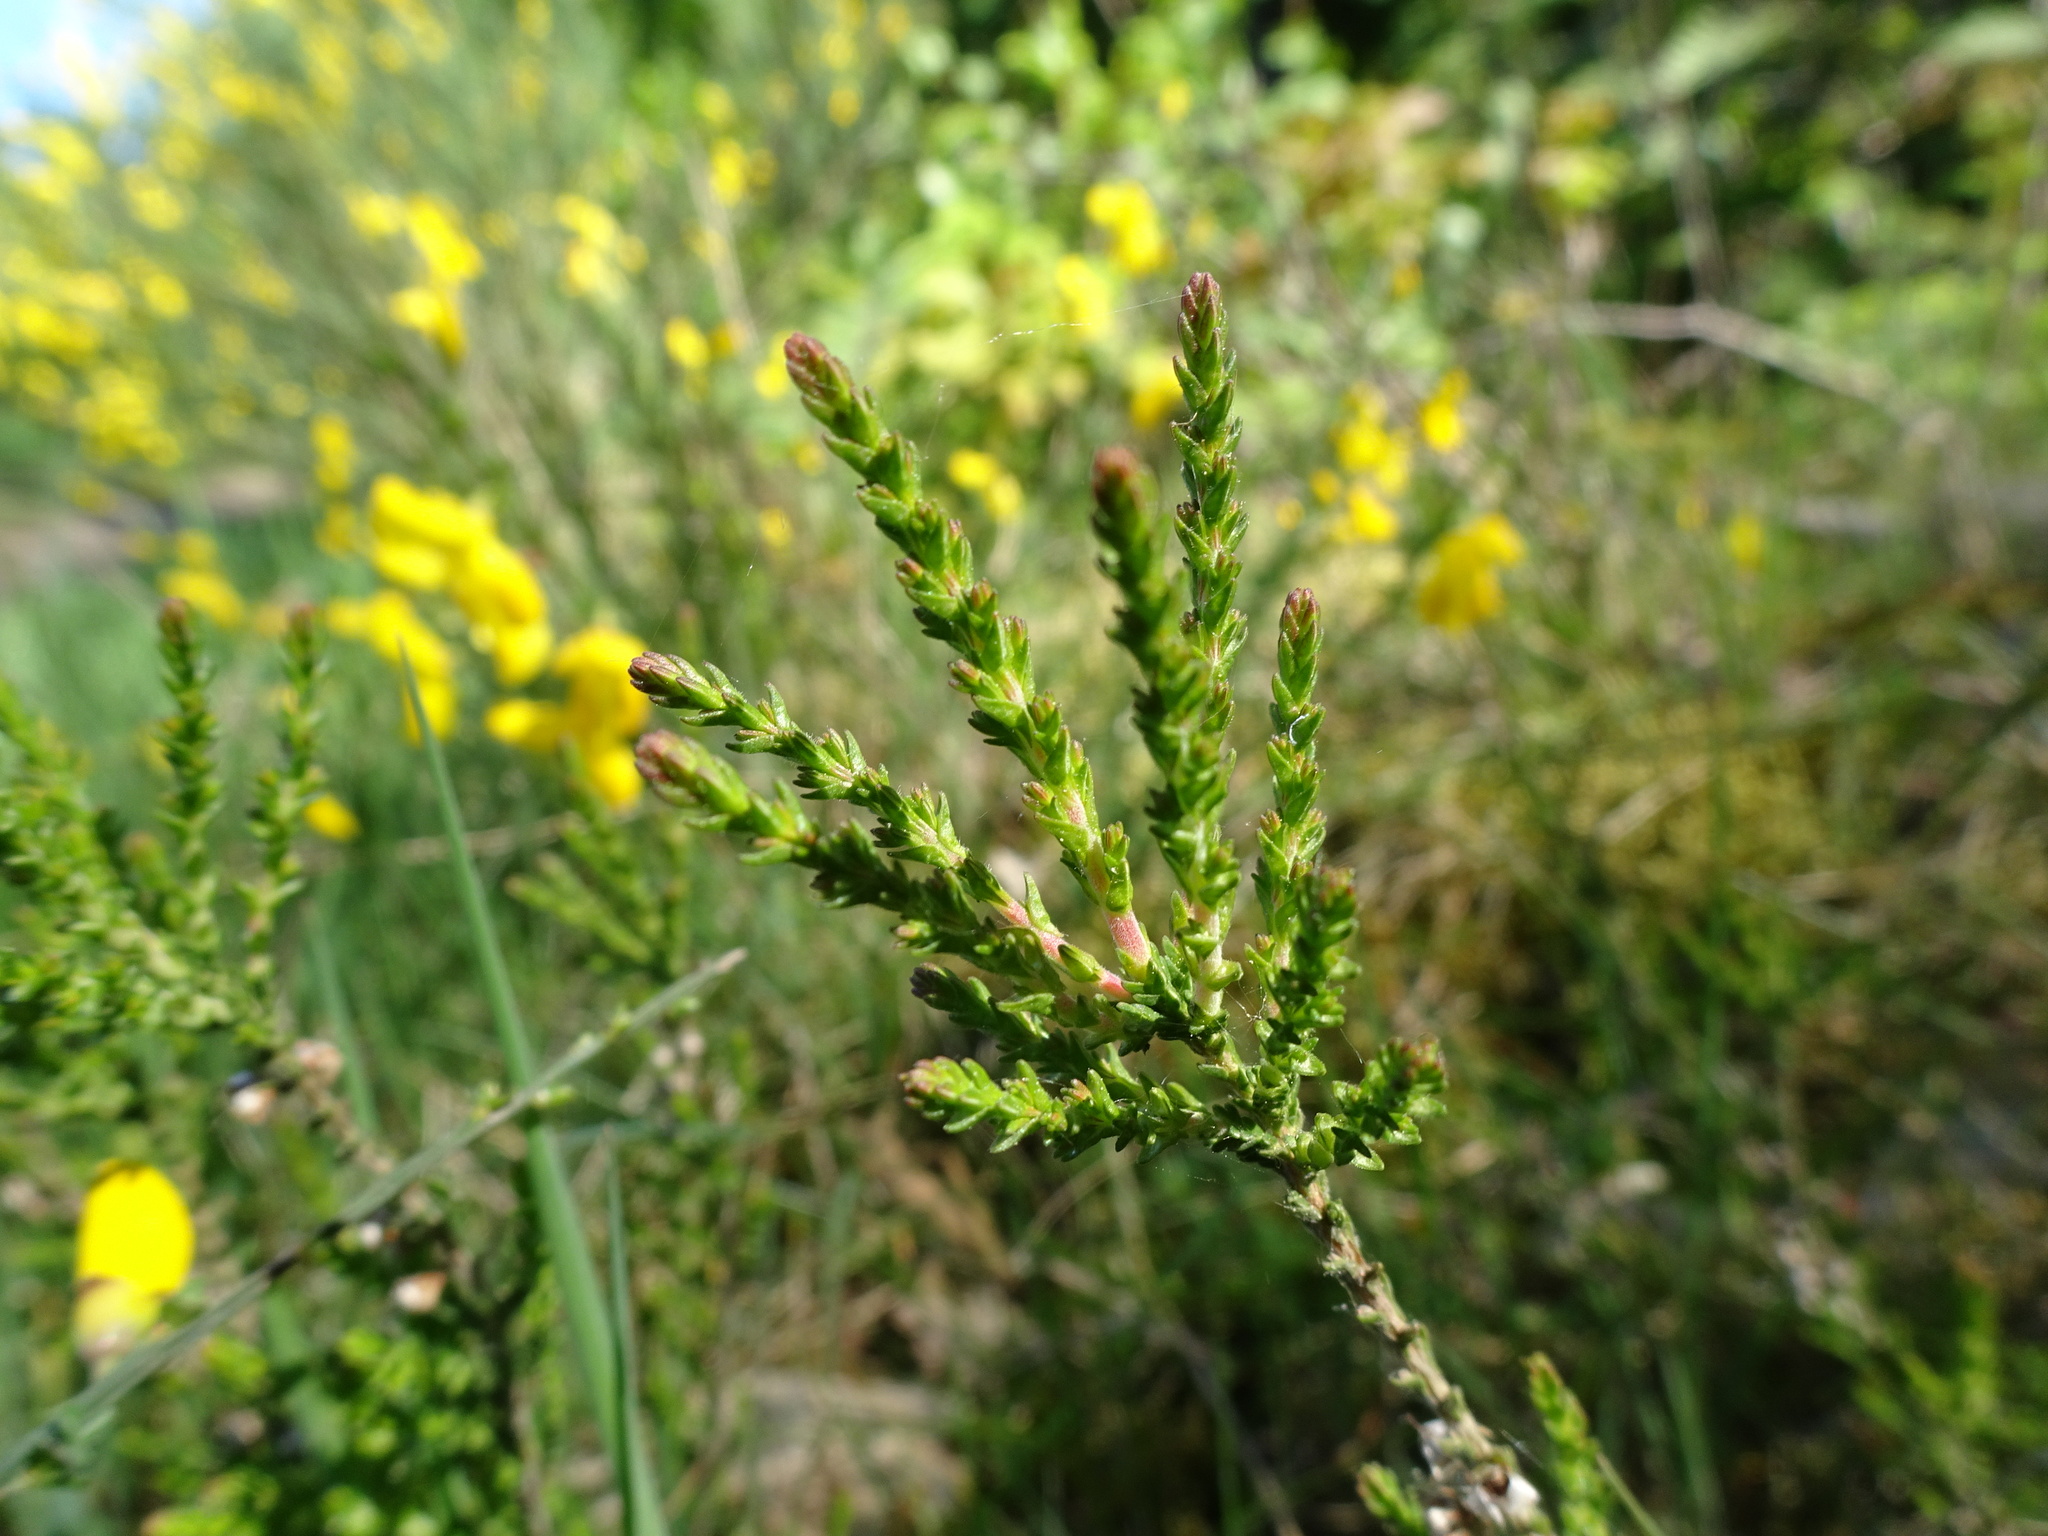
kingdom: Plantae
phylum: Tracheophyta
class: Magnoliopsida
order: Ericales
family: Ericaceae
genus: Calluna
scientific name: Calluna vulgaris
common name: Heather
